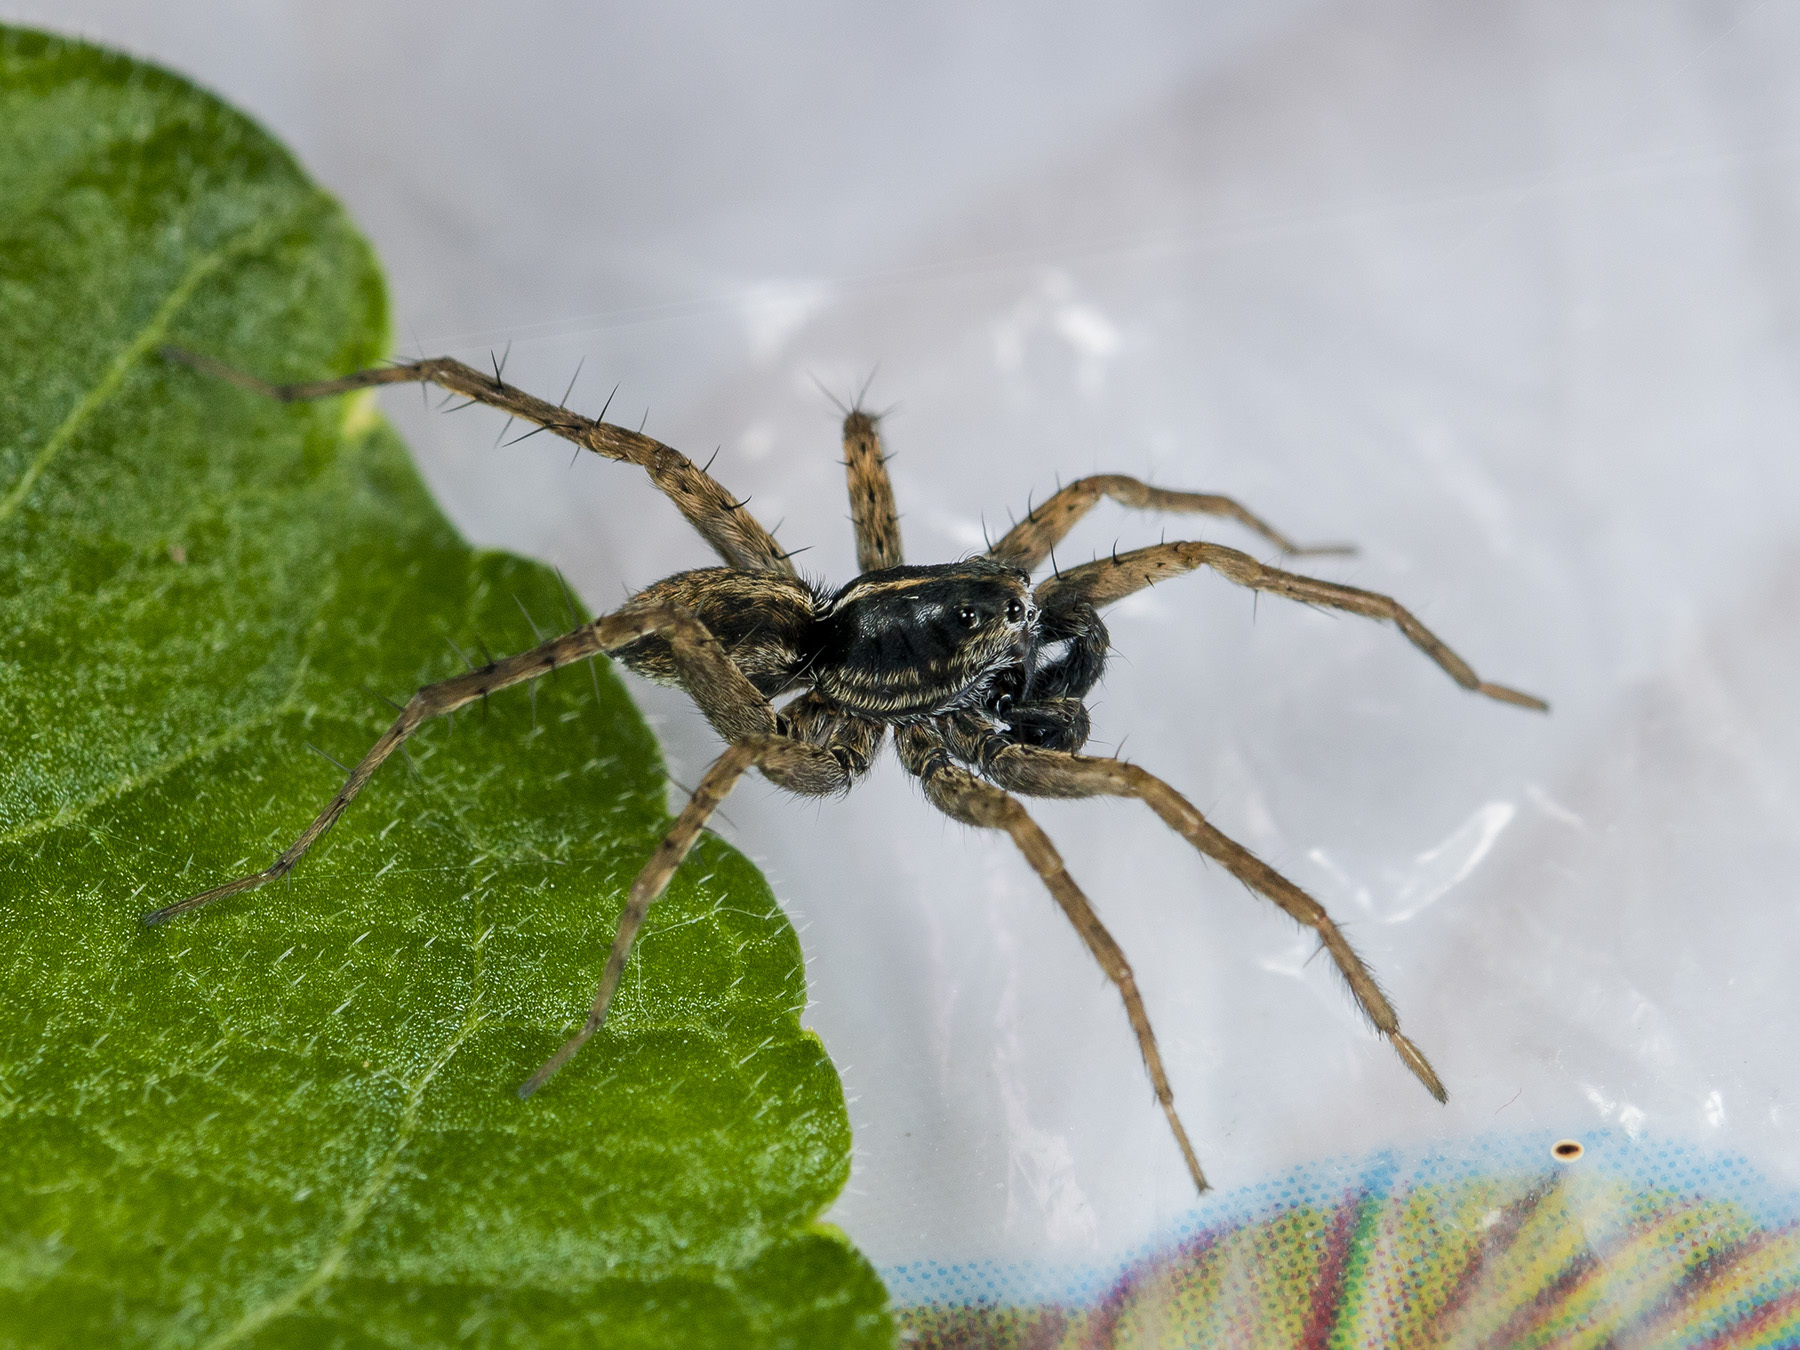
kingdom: Animalia
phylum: Arthropoda
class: Arachnida
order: Araneae
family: Lycosidae
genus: Pardosa
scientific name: Pardosa zonsteini
